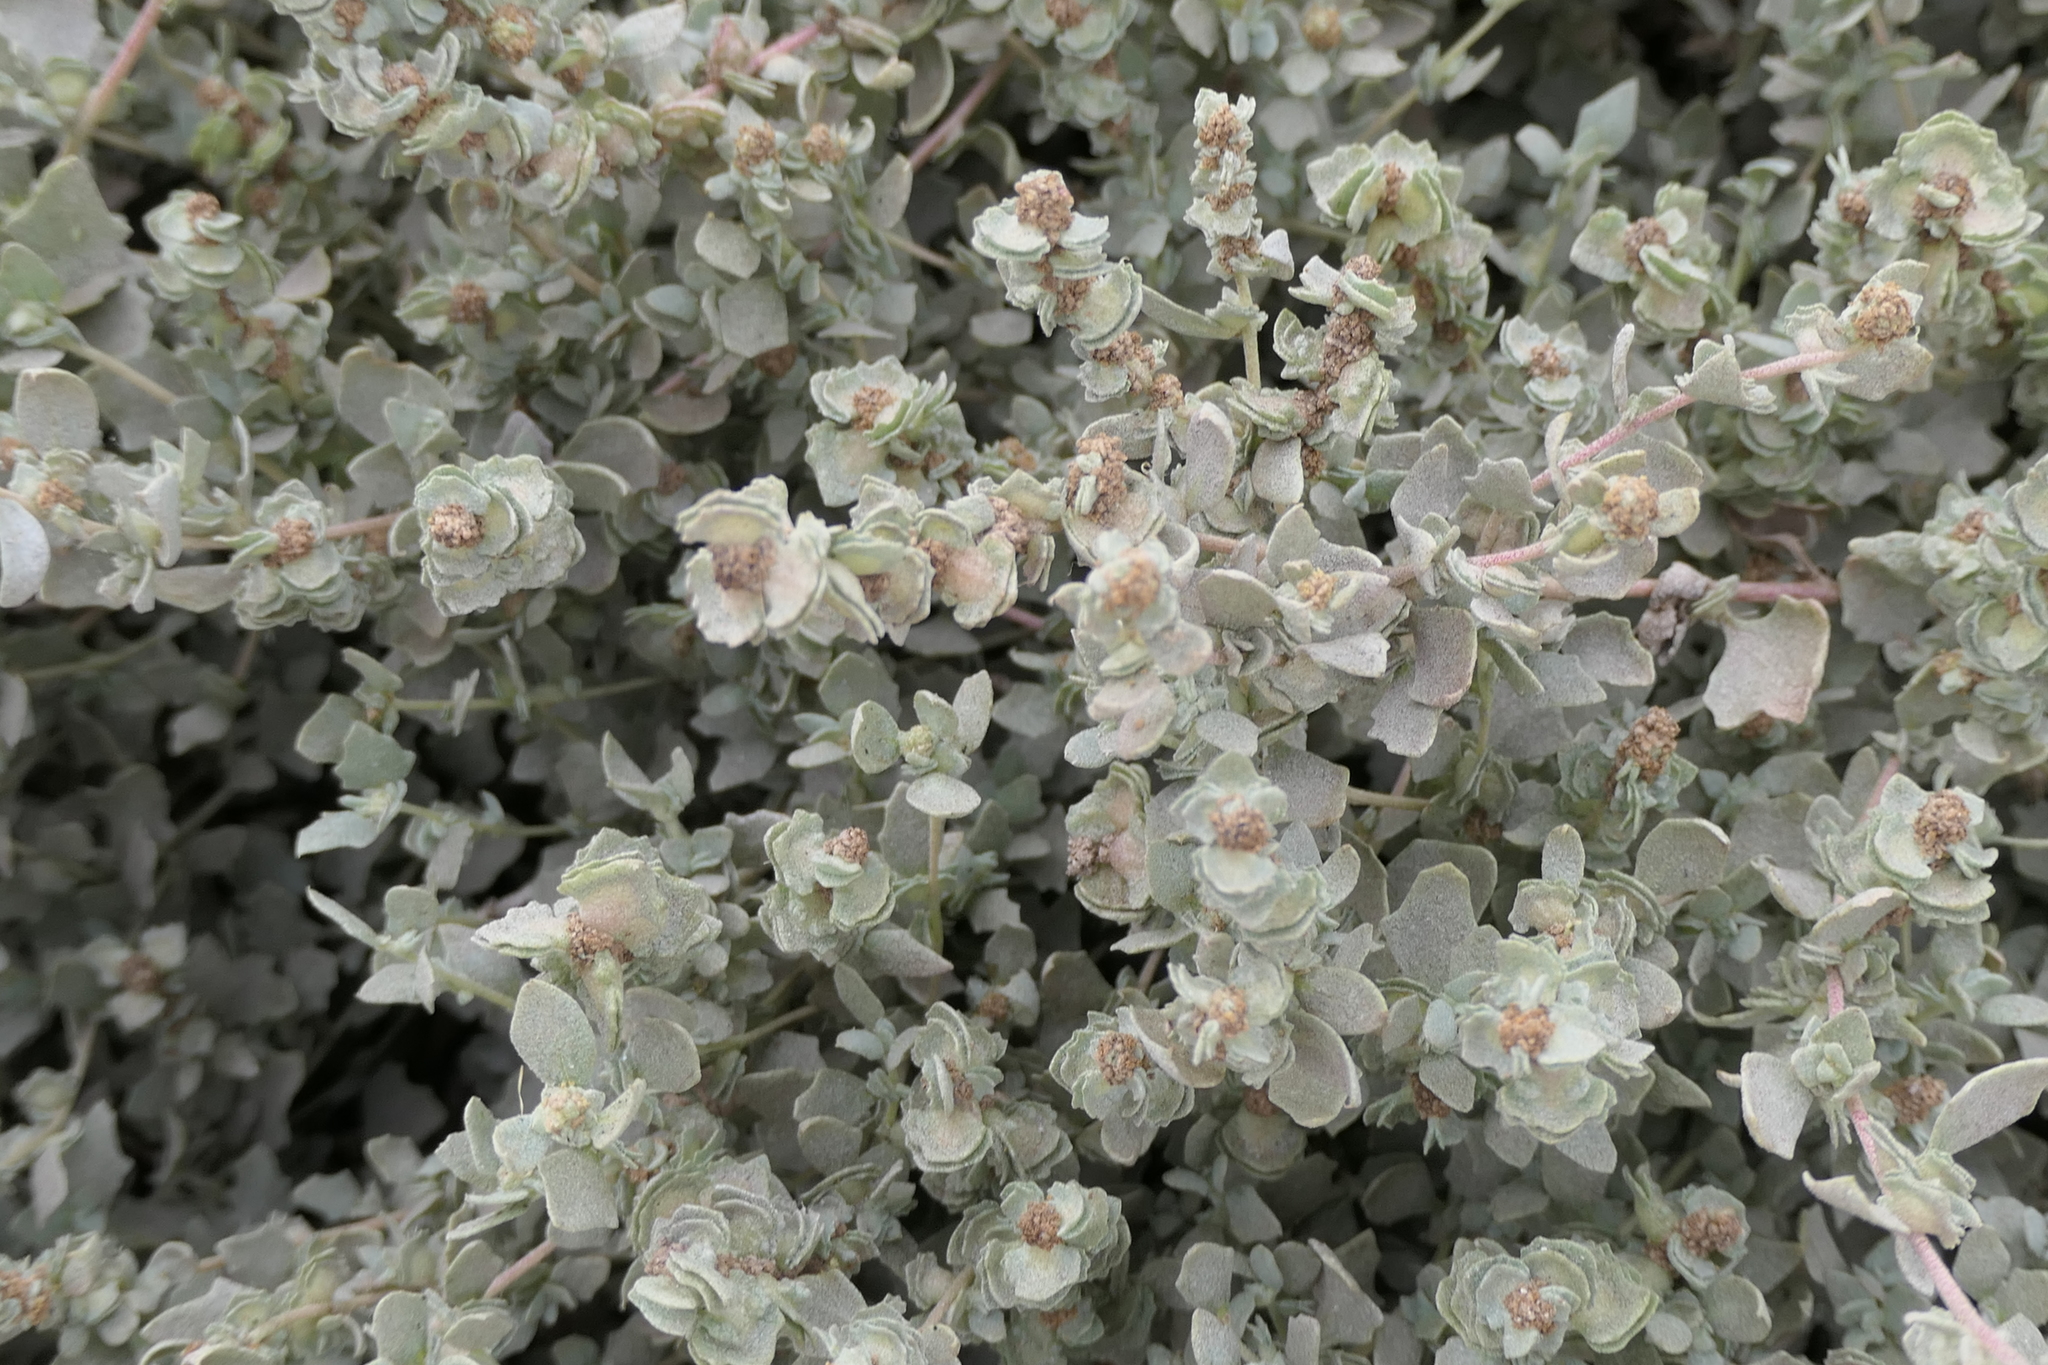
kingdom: Plantae
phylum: Tracheophyta
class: Magnoliopsida
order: Caryophyllales
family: Amaranthaceae
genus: Atriplex
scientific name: Atriplex halimus
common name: Shrubby orache
